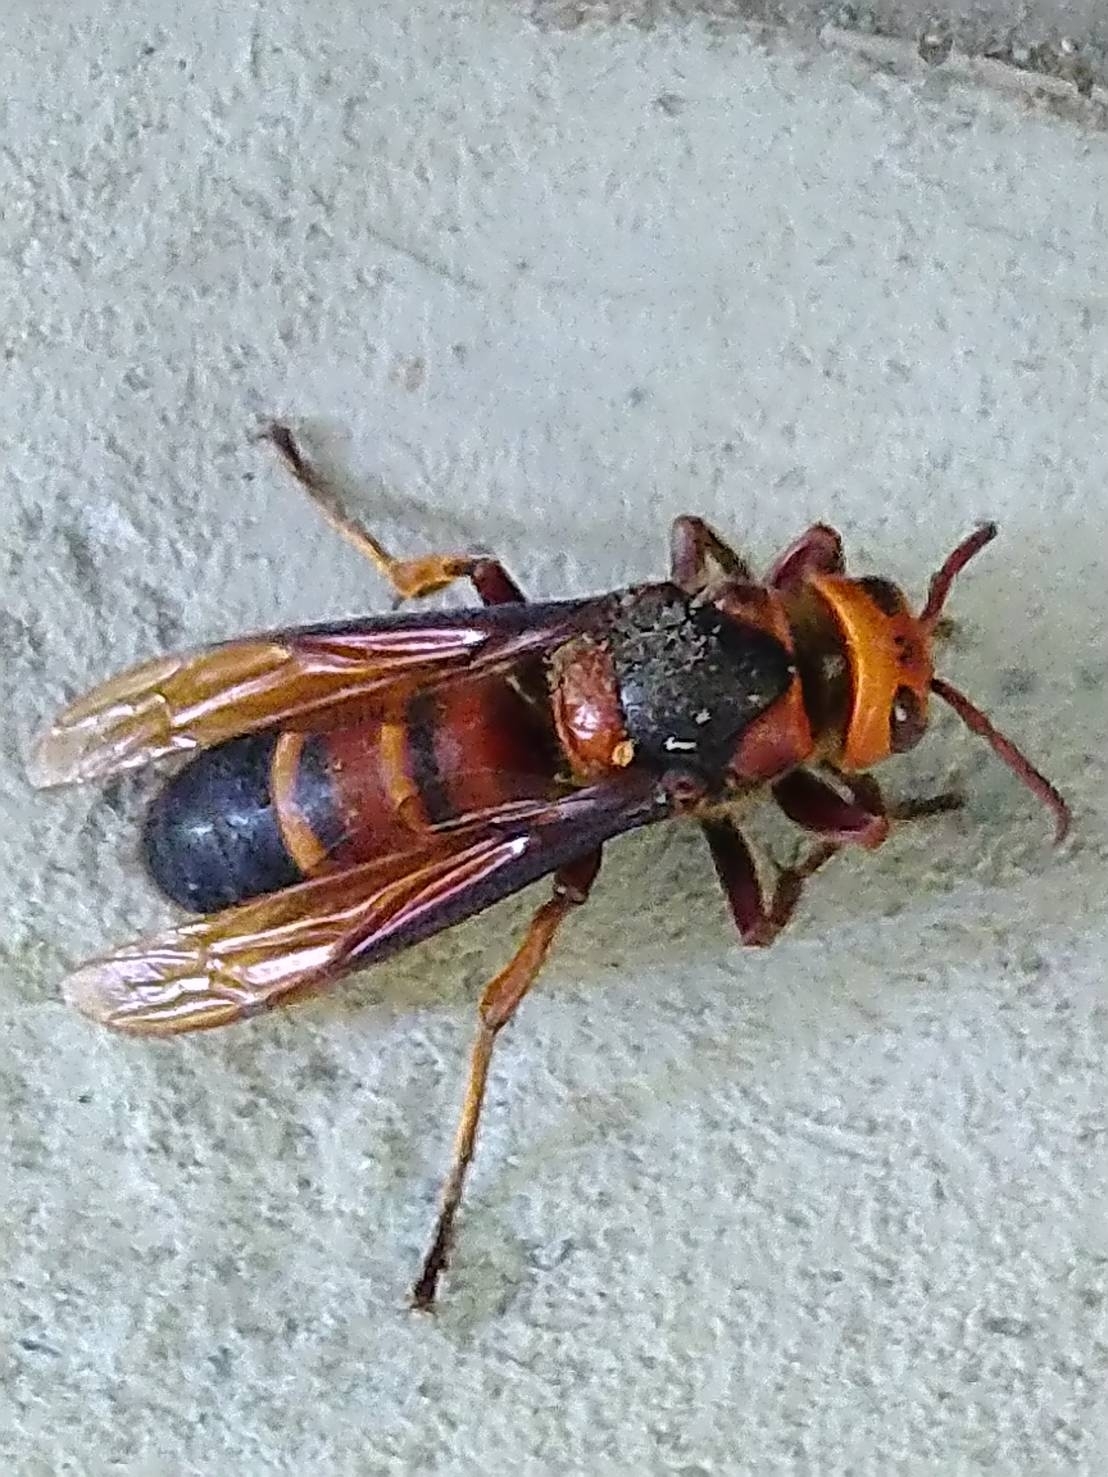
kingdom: Animalia
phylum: Arthropoda
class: Insecta
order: Hymenoptera
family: Vespidae
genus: Vespa
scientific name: Vespa ducalis
